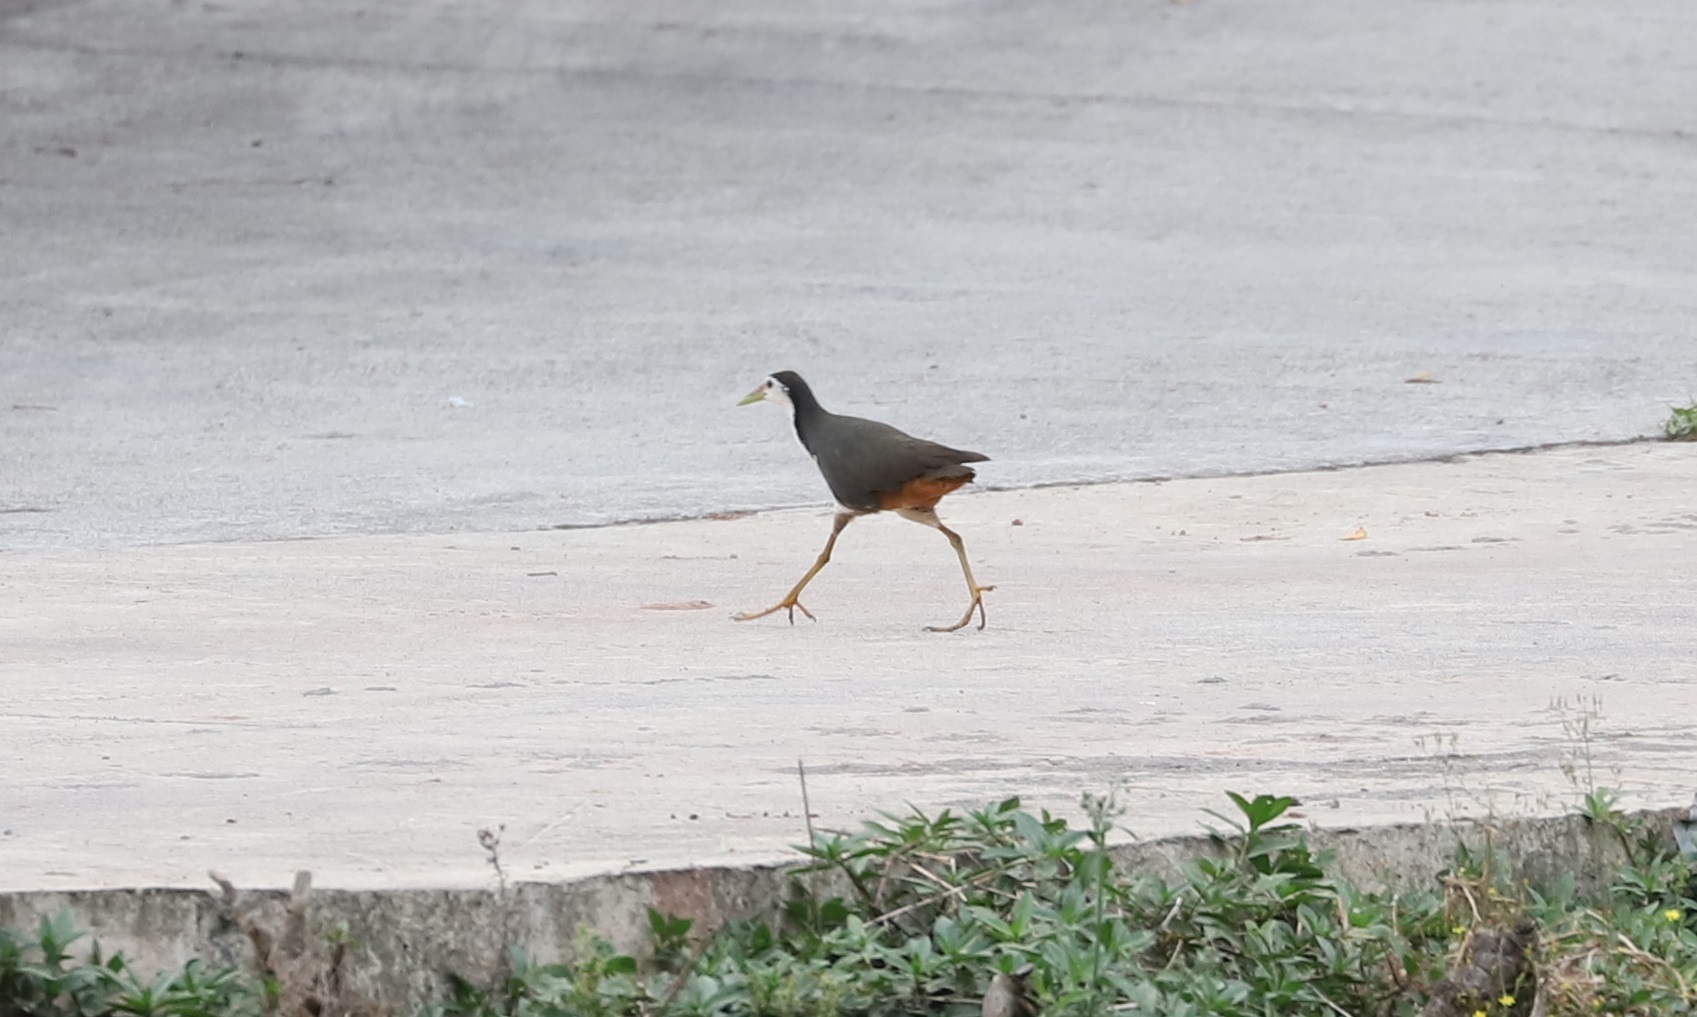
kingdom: Animalia
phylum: Chordata
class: Aves
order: Gruiformes
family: Rallidae
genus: Amaurornis
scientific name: Amaurornis phoenicurus
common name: White-breasted waterhen
